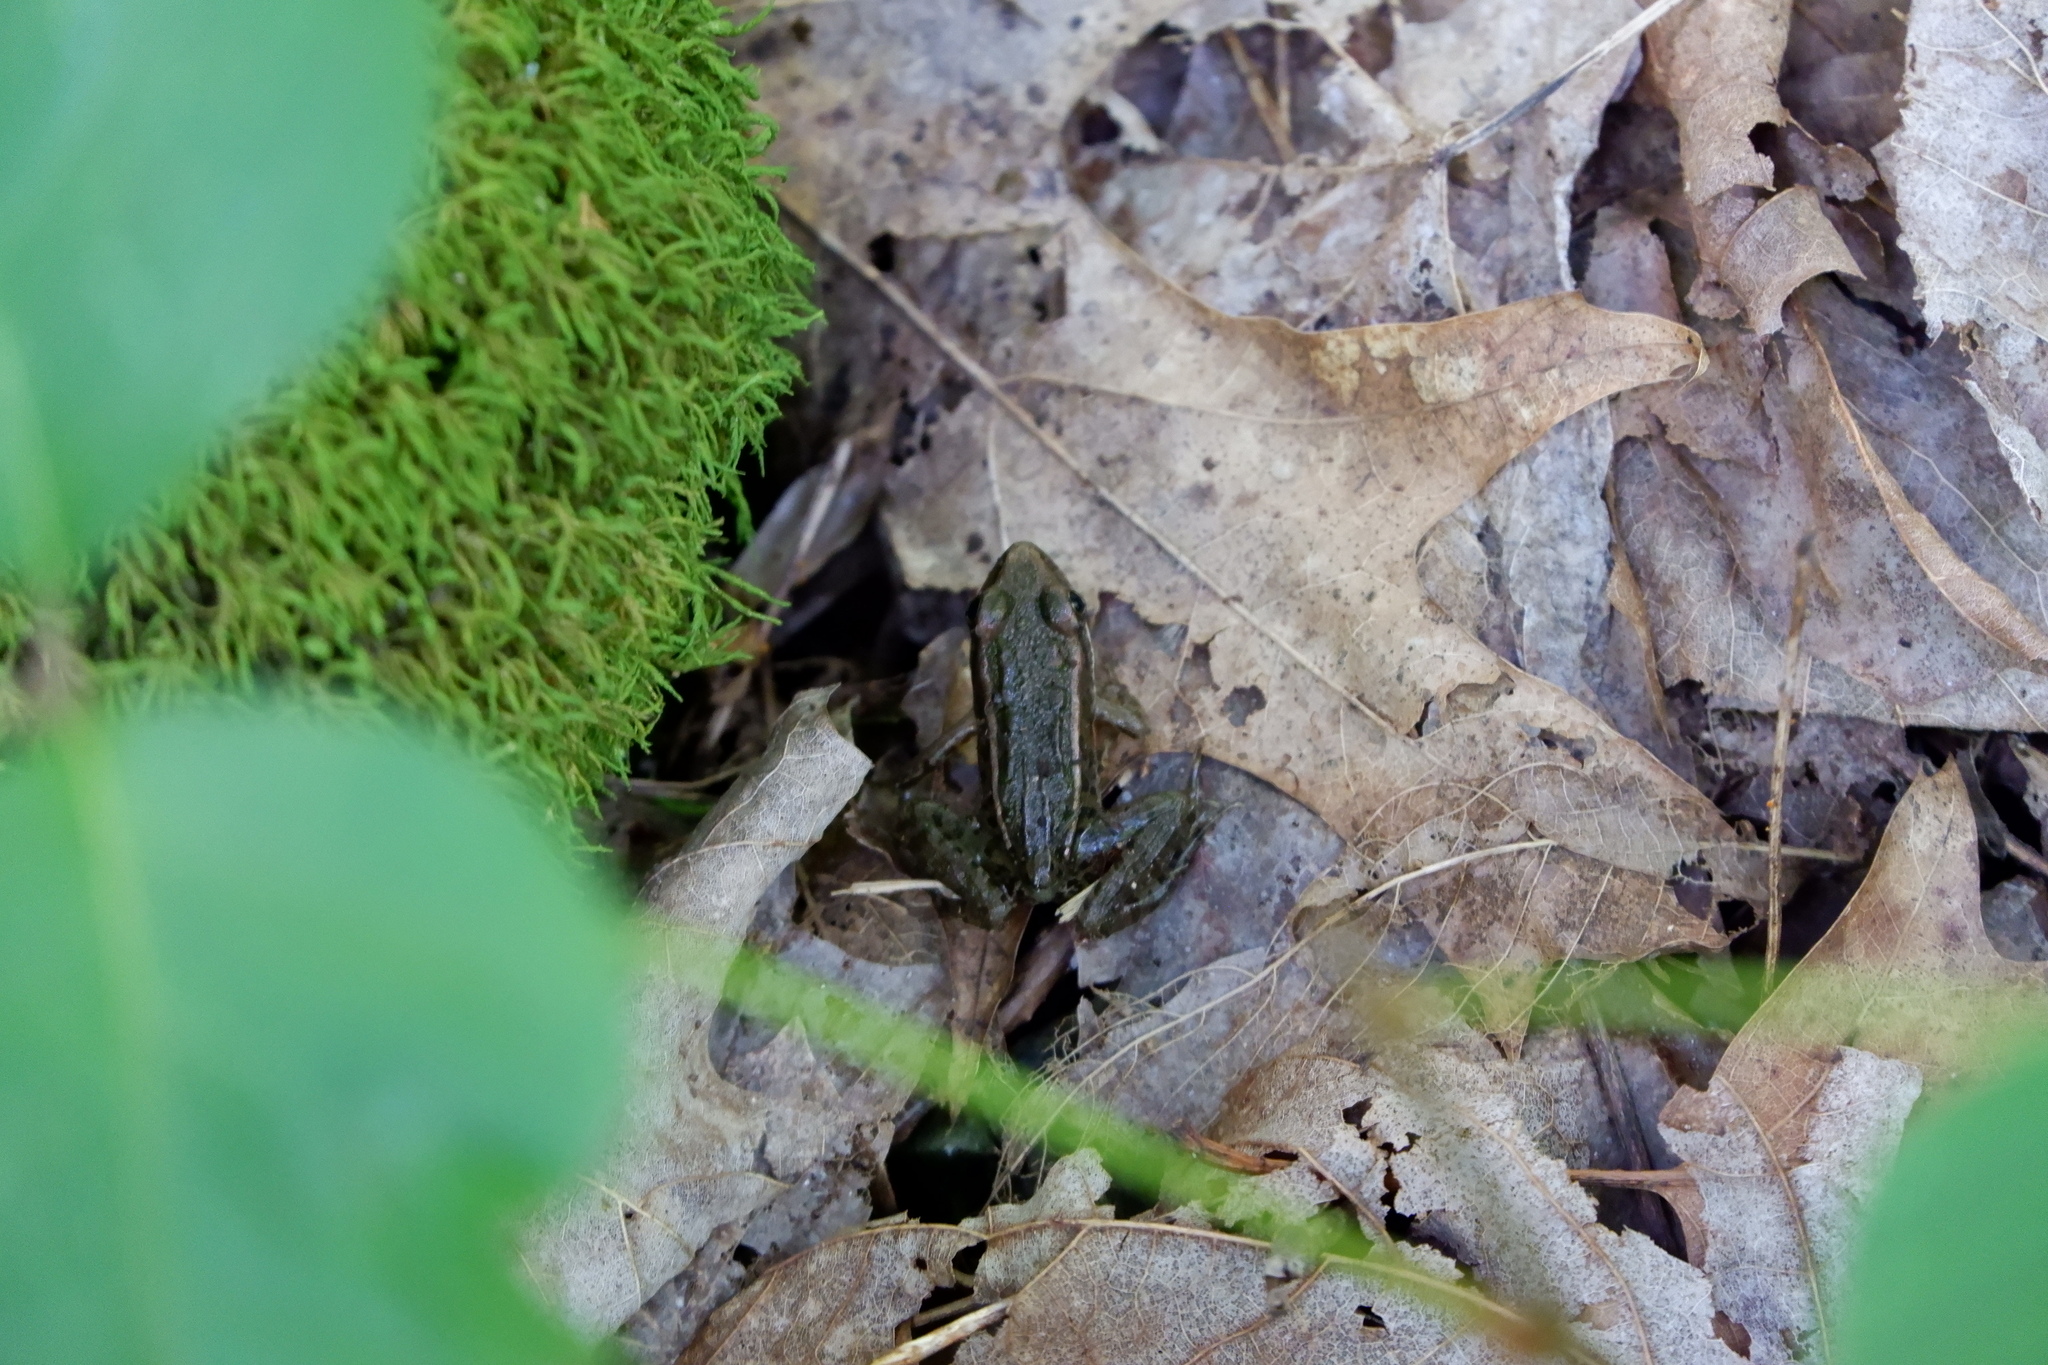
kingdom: Animalia
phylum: Chordata
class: Amphibia
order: Anura
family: Ranidae
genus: Lithobates
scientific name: Lithobates palustris
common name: Pickerel frog
